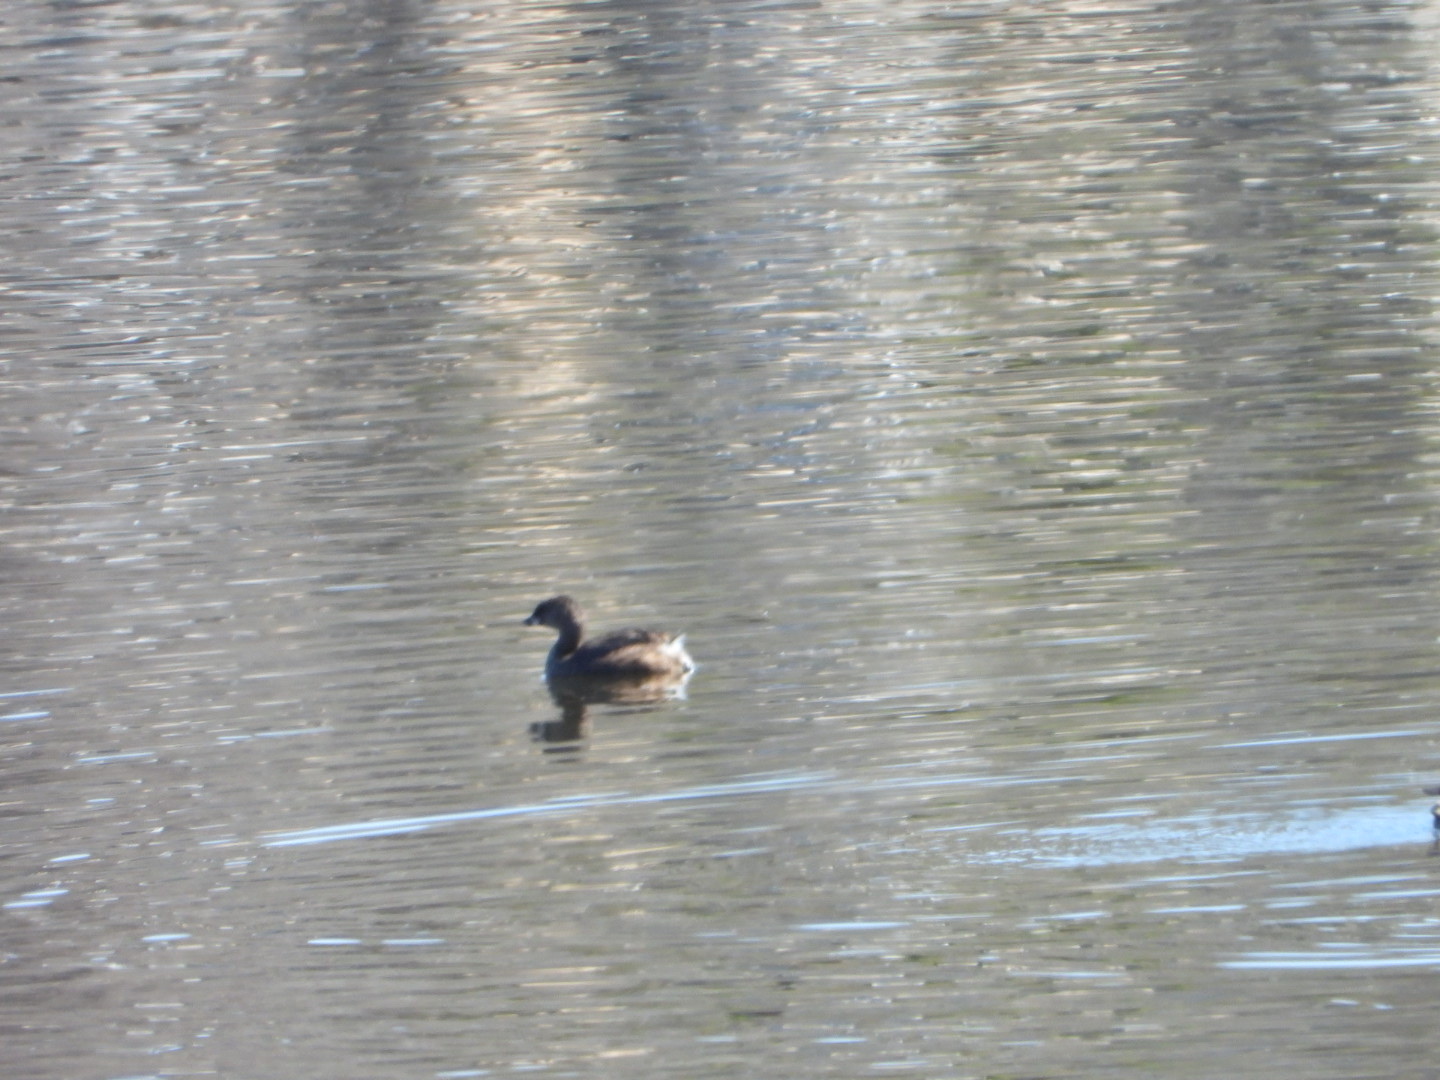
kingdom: Animalia
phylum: Chordata
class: Aves
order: Podicipediformes
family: Podicipedidae
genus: Podilymbus
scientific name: Podilymbus podiceps
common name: Pied-billed grebe
